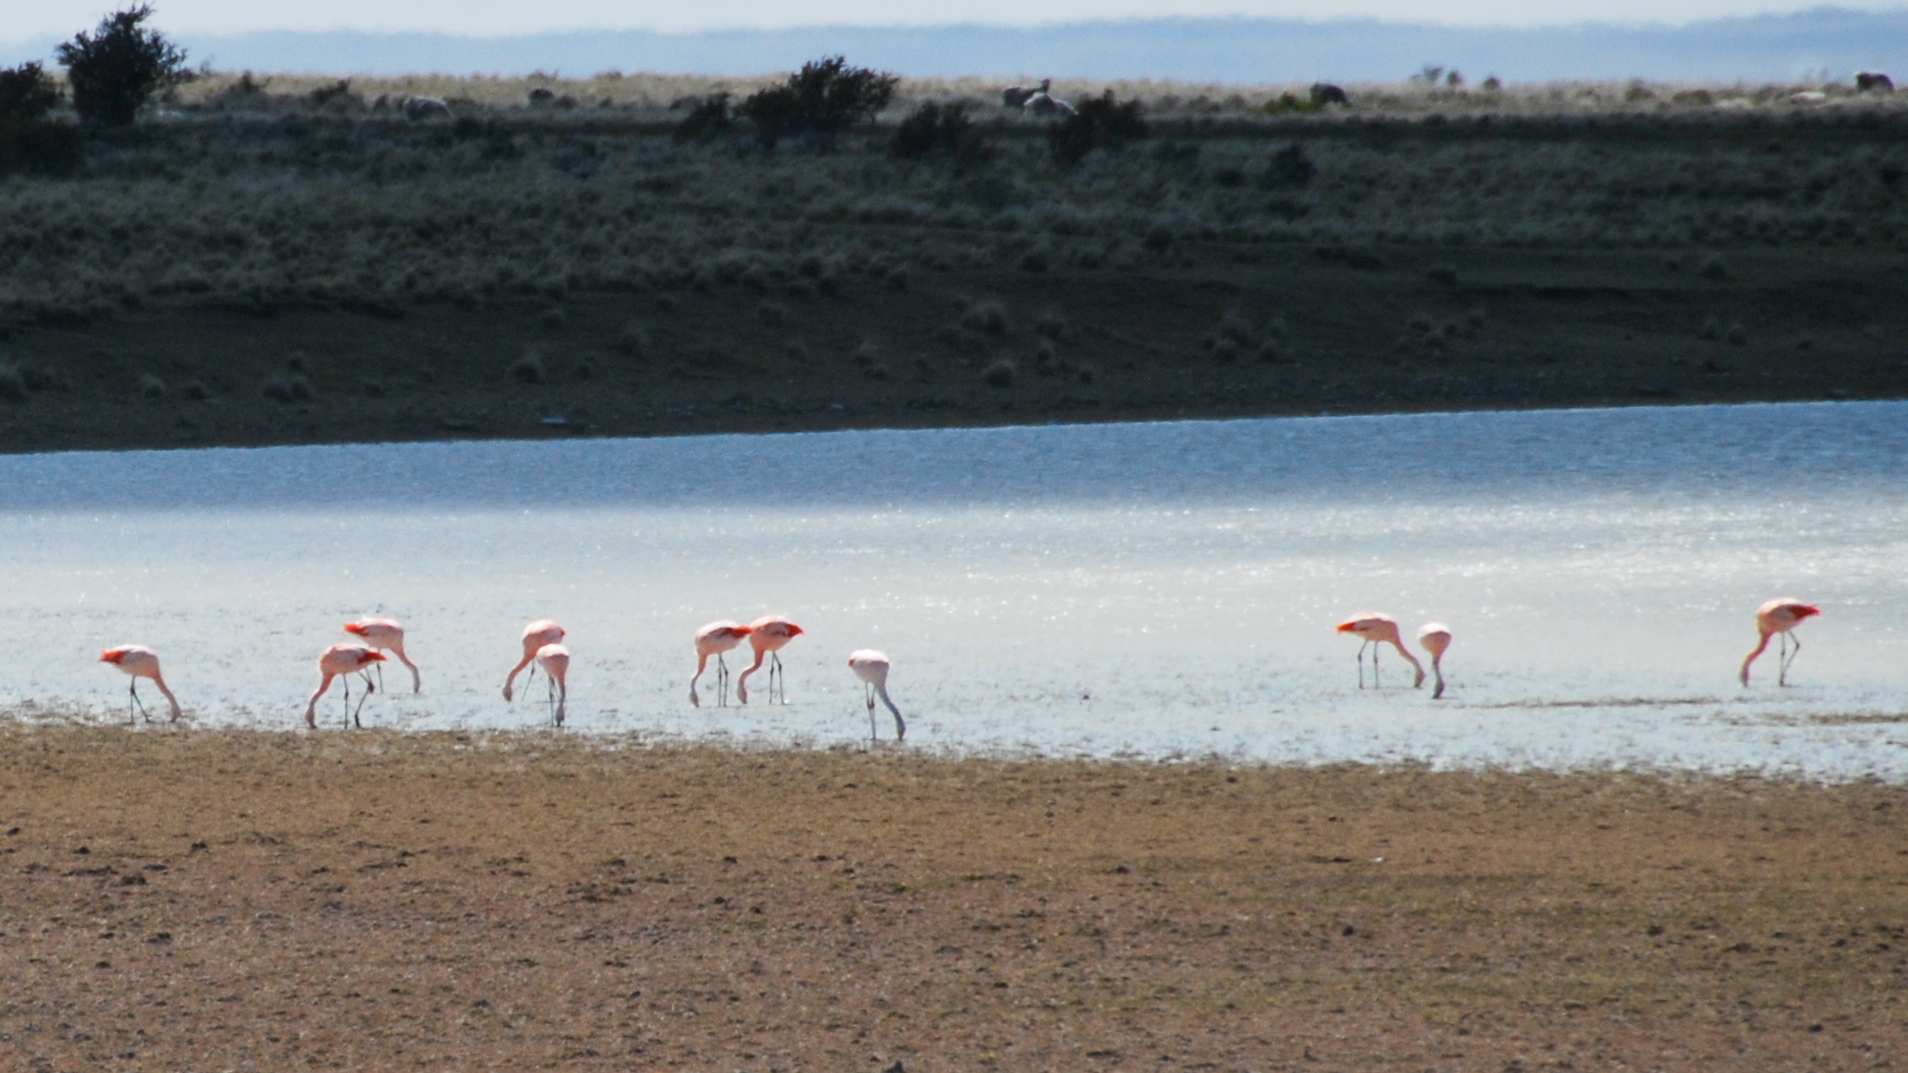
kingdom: Animalia
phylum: Chordata
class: Aves
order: Phoenicopteriformes
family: Phoenicopteridae
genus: Phoenicopterus
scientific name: Phoenicopterus chilensis
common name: Chilean flamingo
